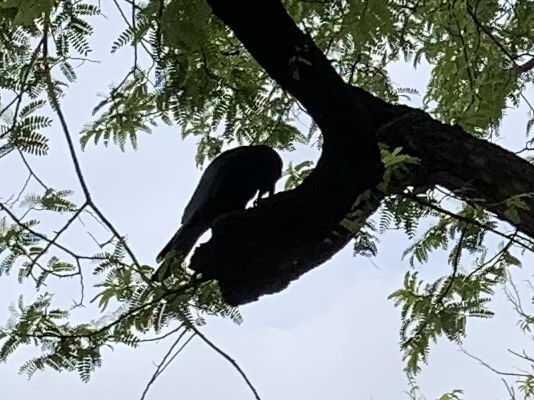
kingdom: Animalia
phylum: Chordata
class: Aves
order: Passeriformes
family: Corvidae
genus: Corvus
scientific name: Corvus macrorhynchos
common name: Large-billed crow
